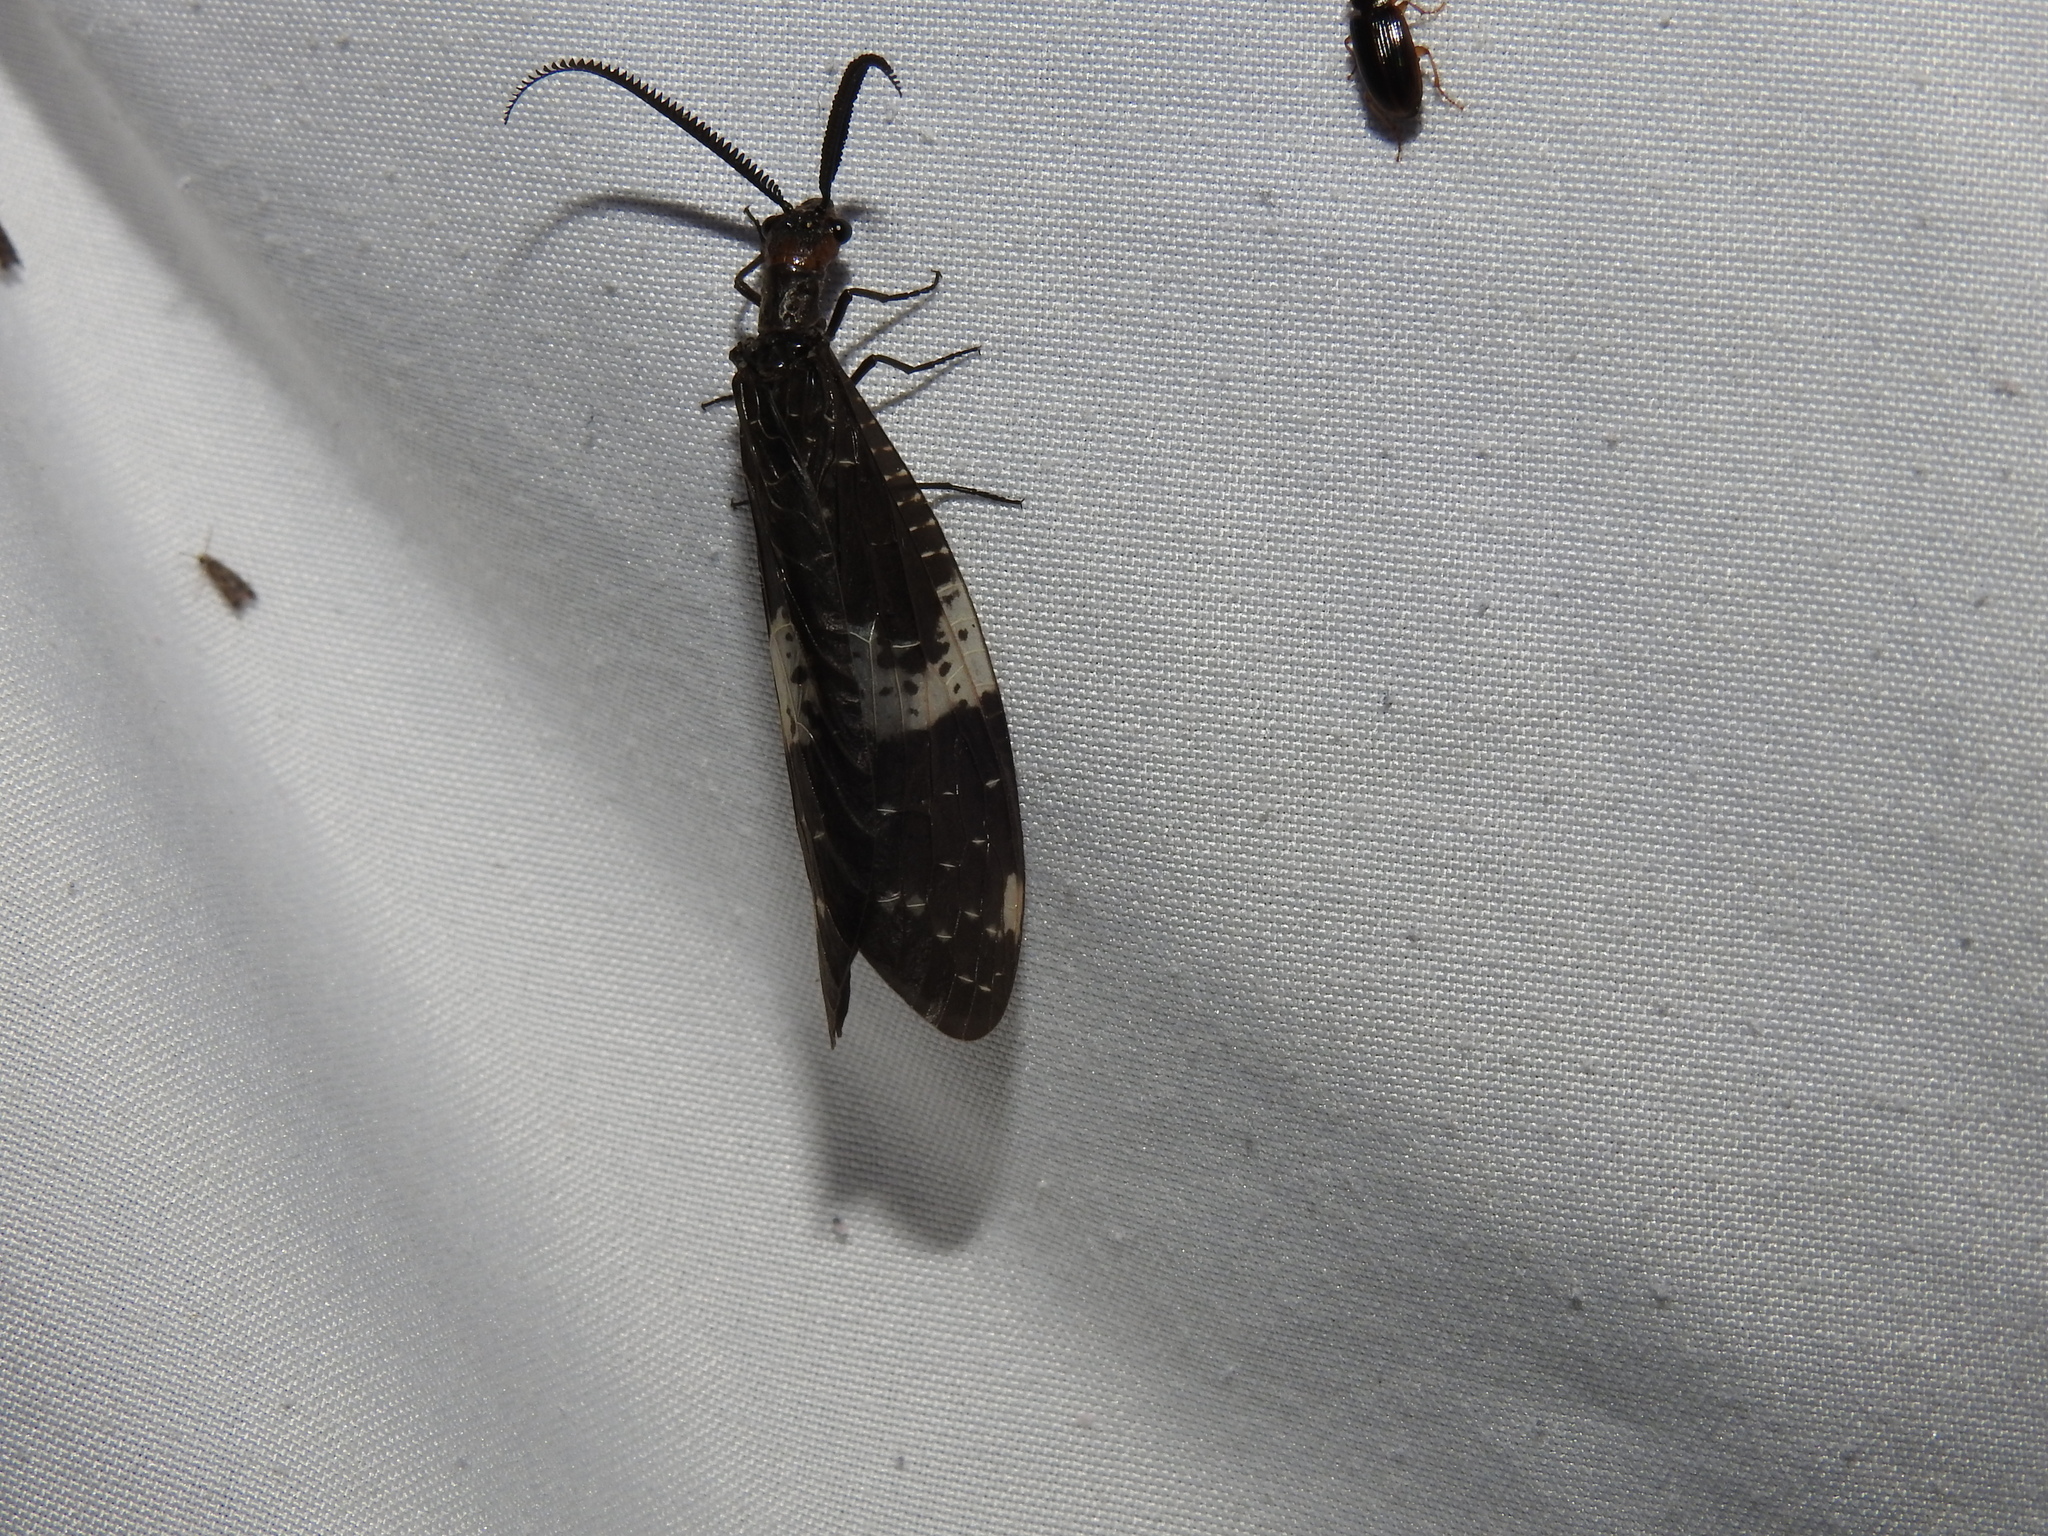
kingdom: Animalia
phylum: Arthropoda
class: Insecta
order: Megaloptera
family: Corydalidae
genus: Nigronia
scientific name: Nigronia fasciata
